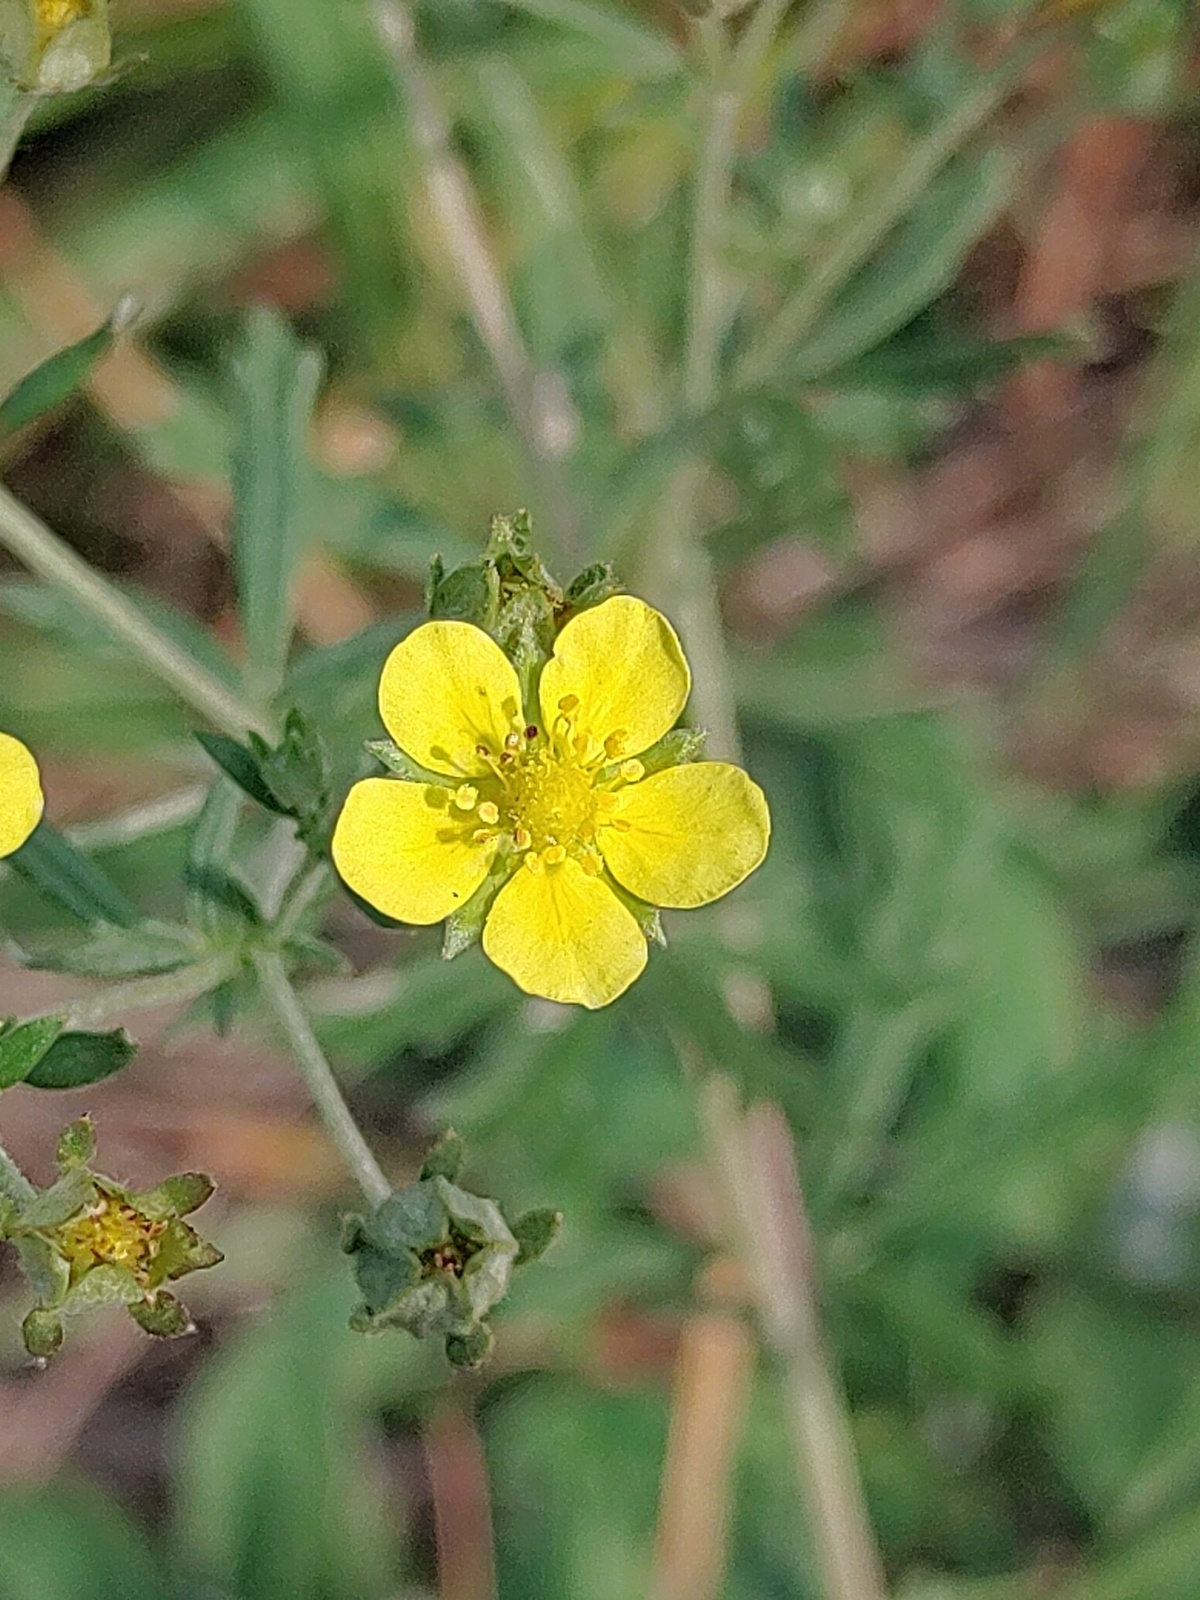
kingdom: Plantae
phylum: Tracheophyta
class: Magnoliopsida
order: Rosales
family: Rosaceae
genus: Potentilla
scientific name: Potentilla argentea
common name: Hoary cinquefoil
